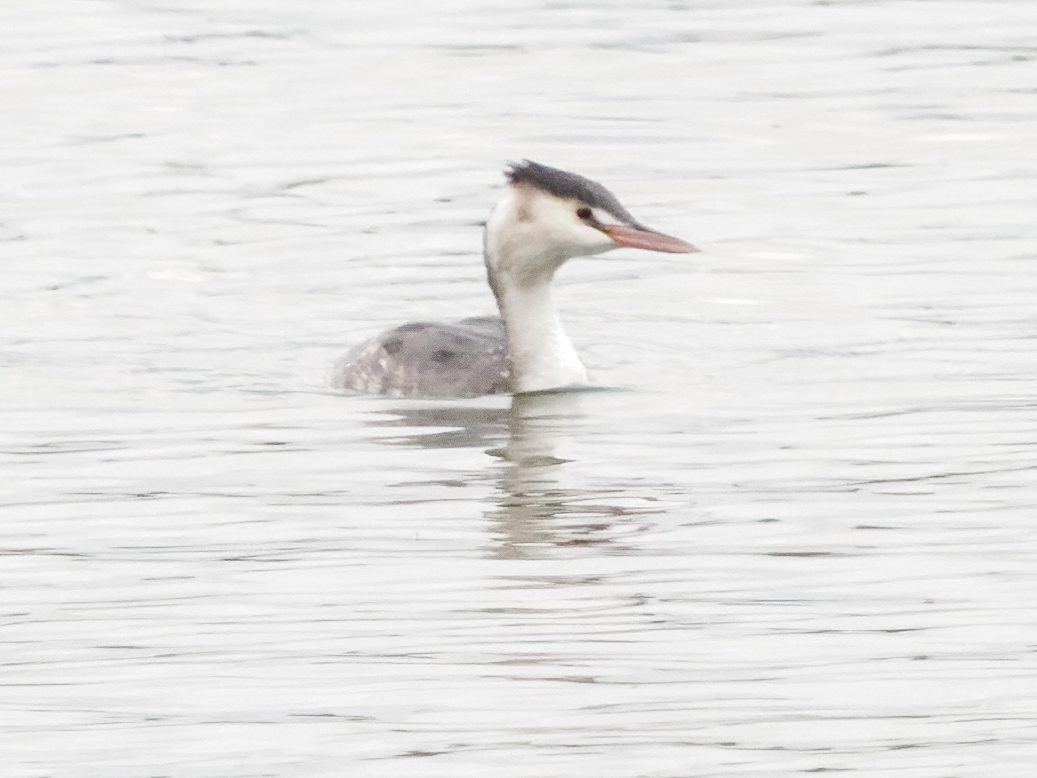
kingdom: Animalia
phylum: Chordata
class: Aves
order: Podicipediformes
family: Podicipedidae
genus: Podiceps
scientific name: Podiceps cristatus
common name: Great crested grebe
